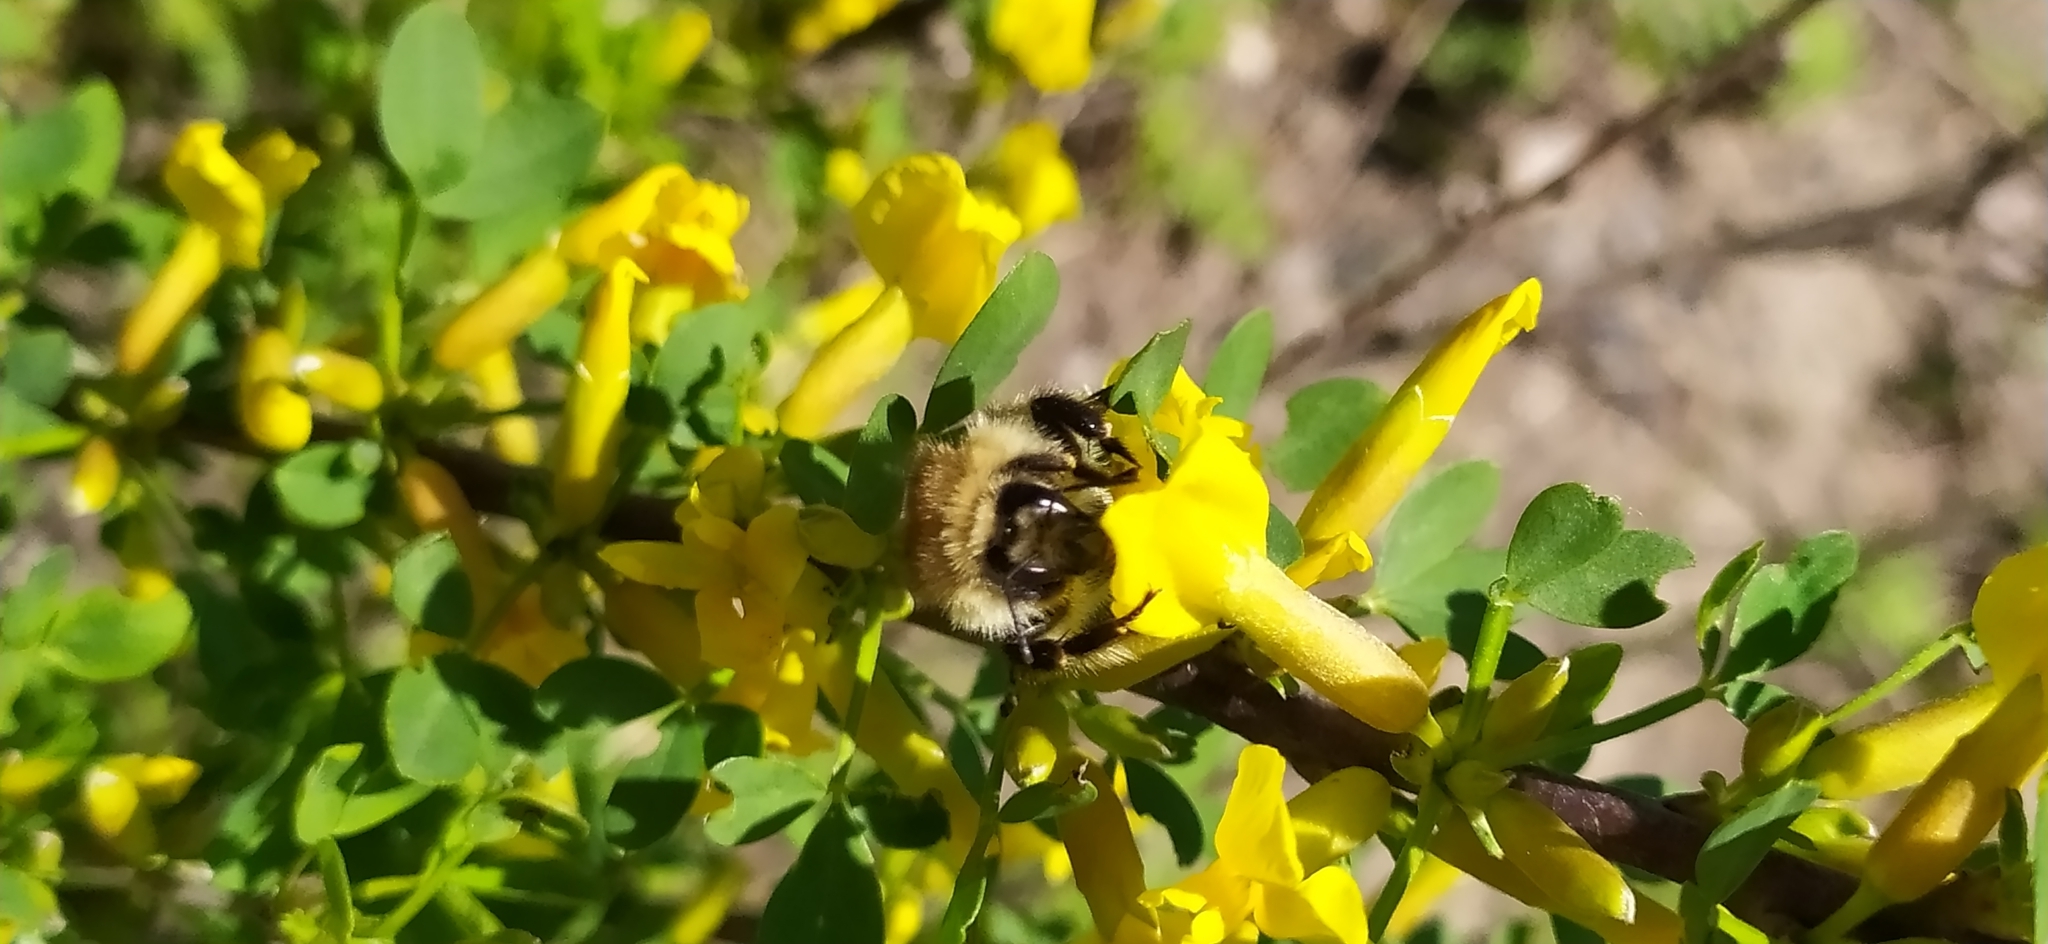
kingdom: Animalia
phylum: Arthropoda
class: Insecta
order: Hymenoptera
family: Apidae
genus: Bombus
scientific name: Bombus humilis
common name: Brown-banded carder-bee
